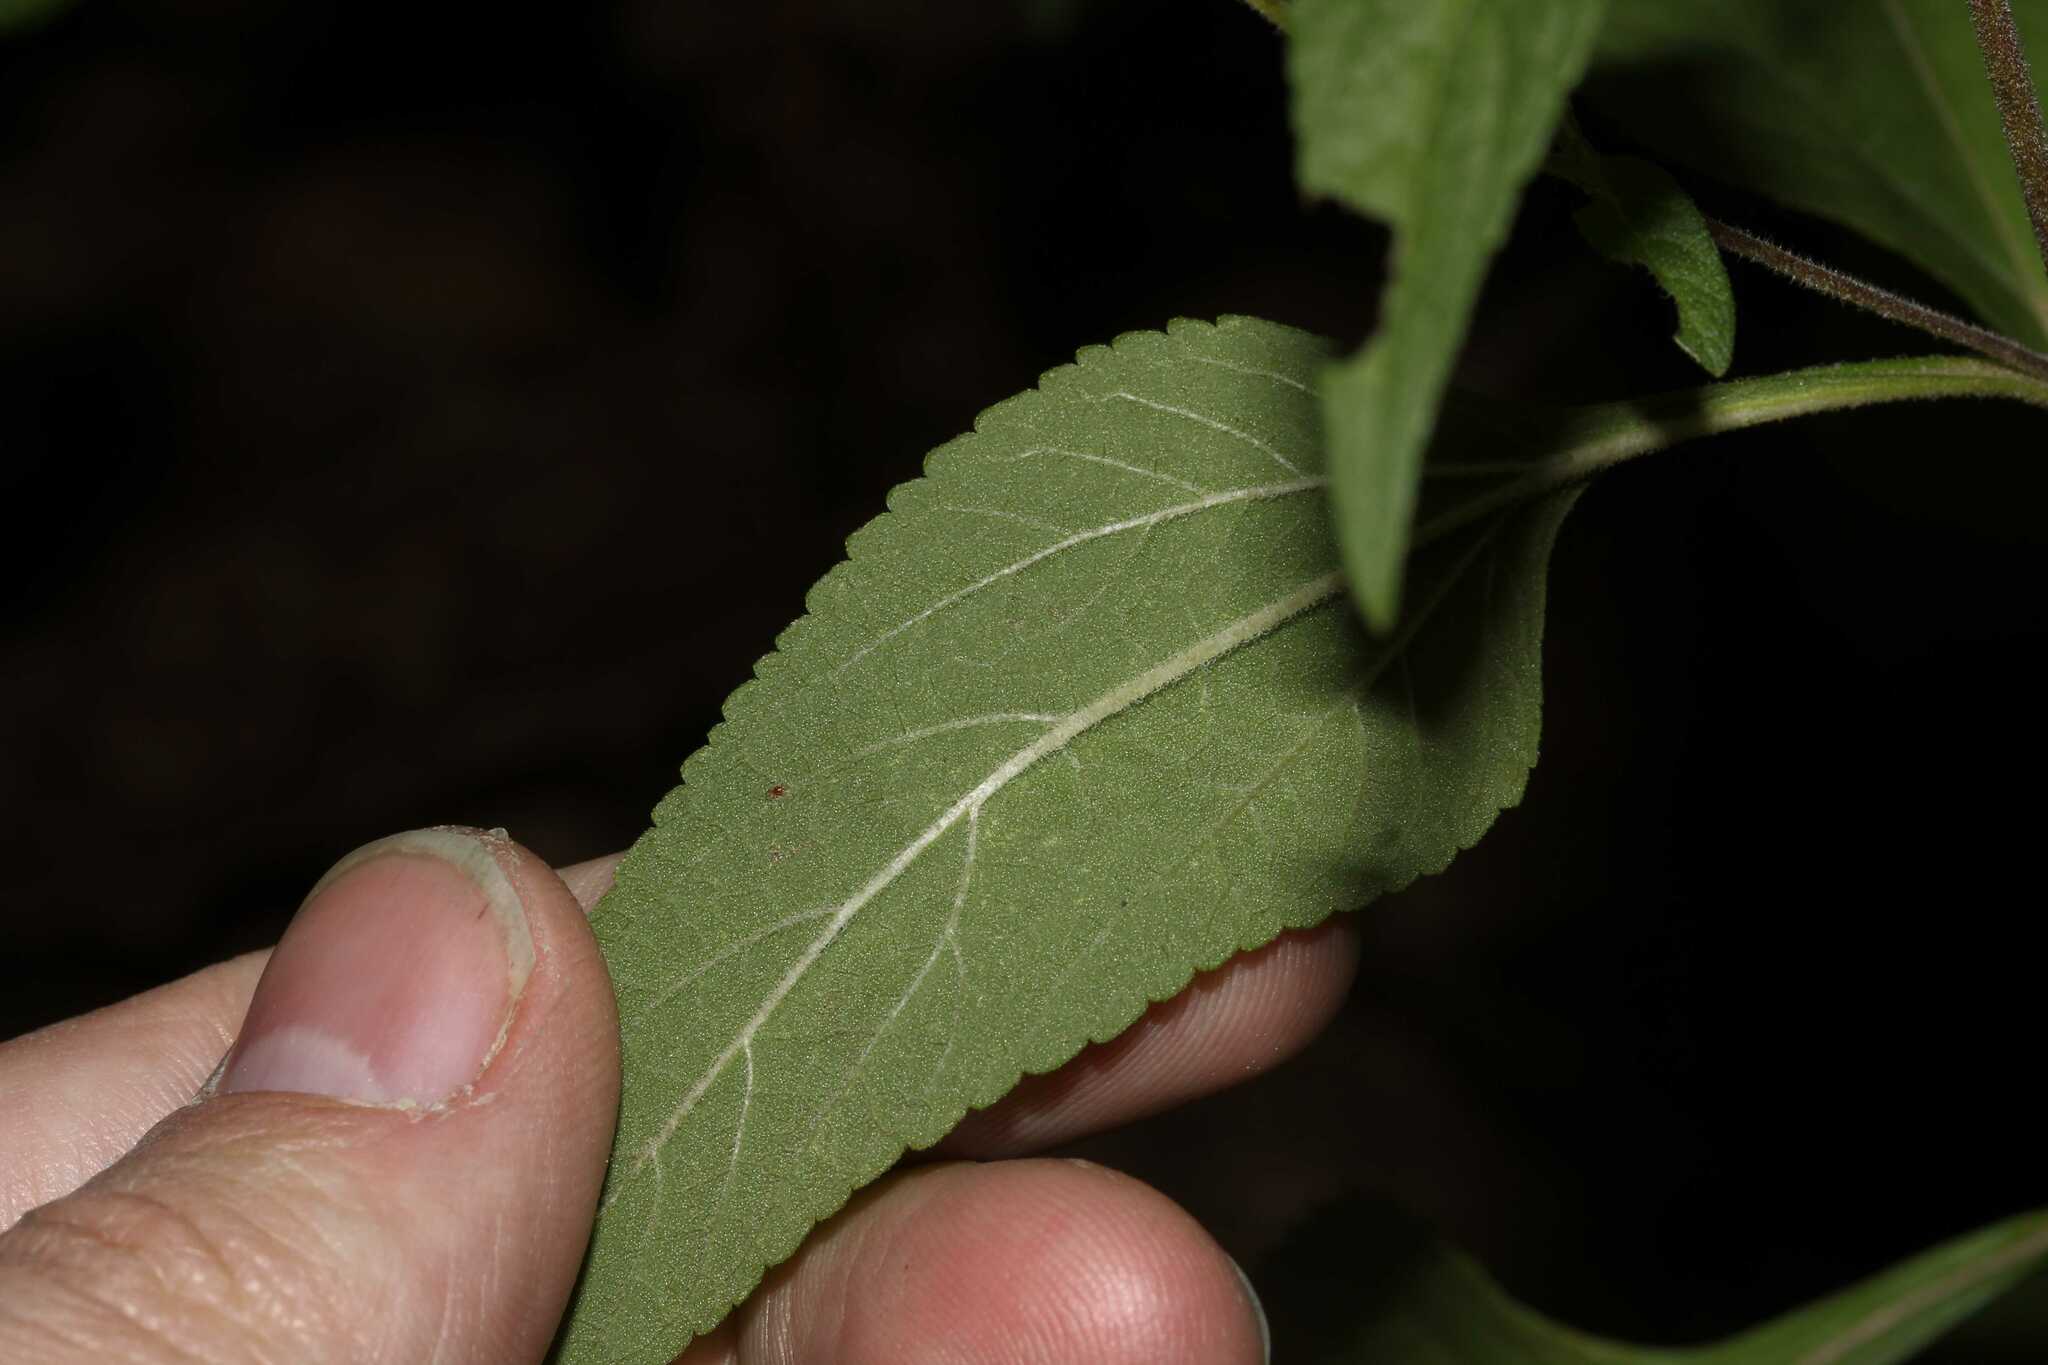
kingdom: Plantae
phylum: Tracheophyta
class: Magnoliopsida
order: Asterales
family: Asteraceae
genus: Stevia
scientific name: Stevia monardifolia
